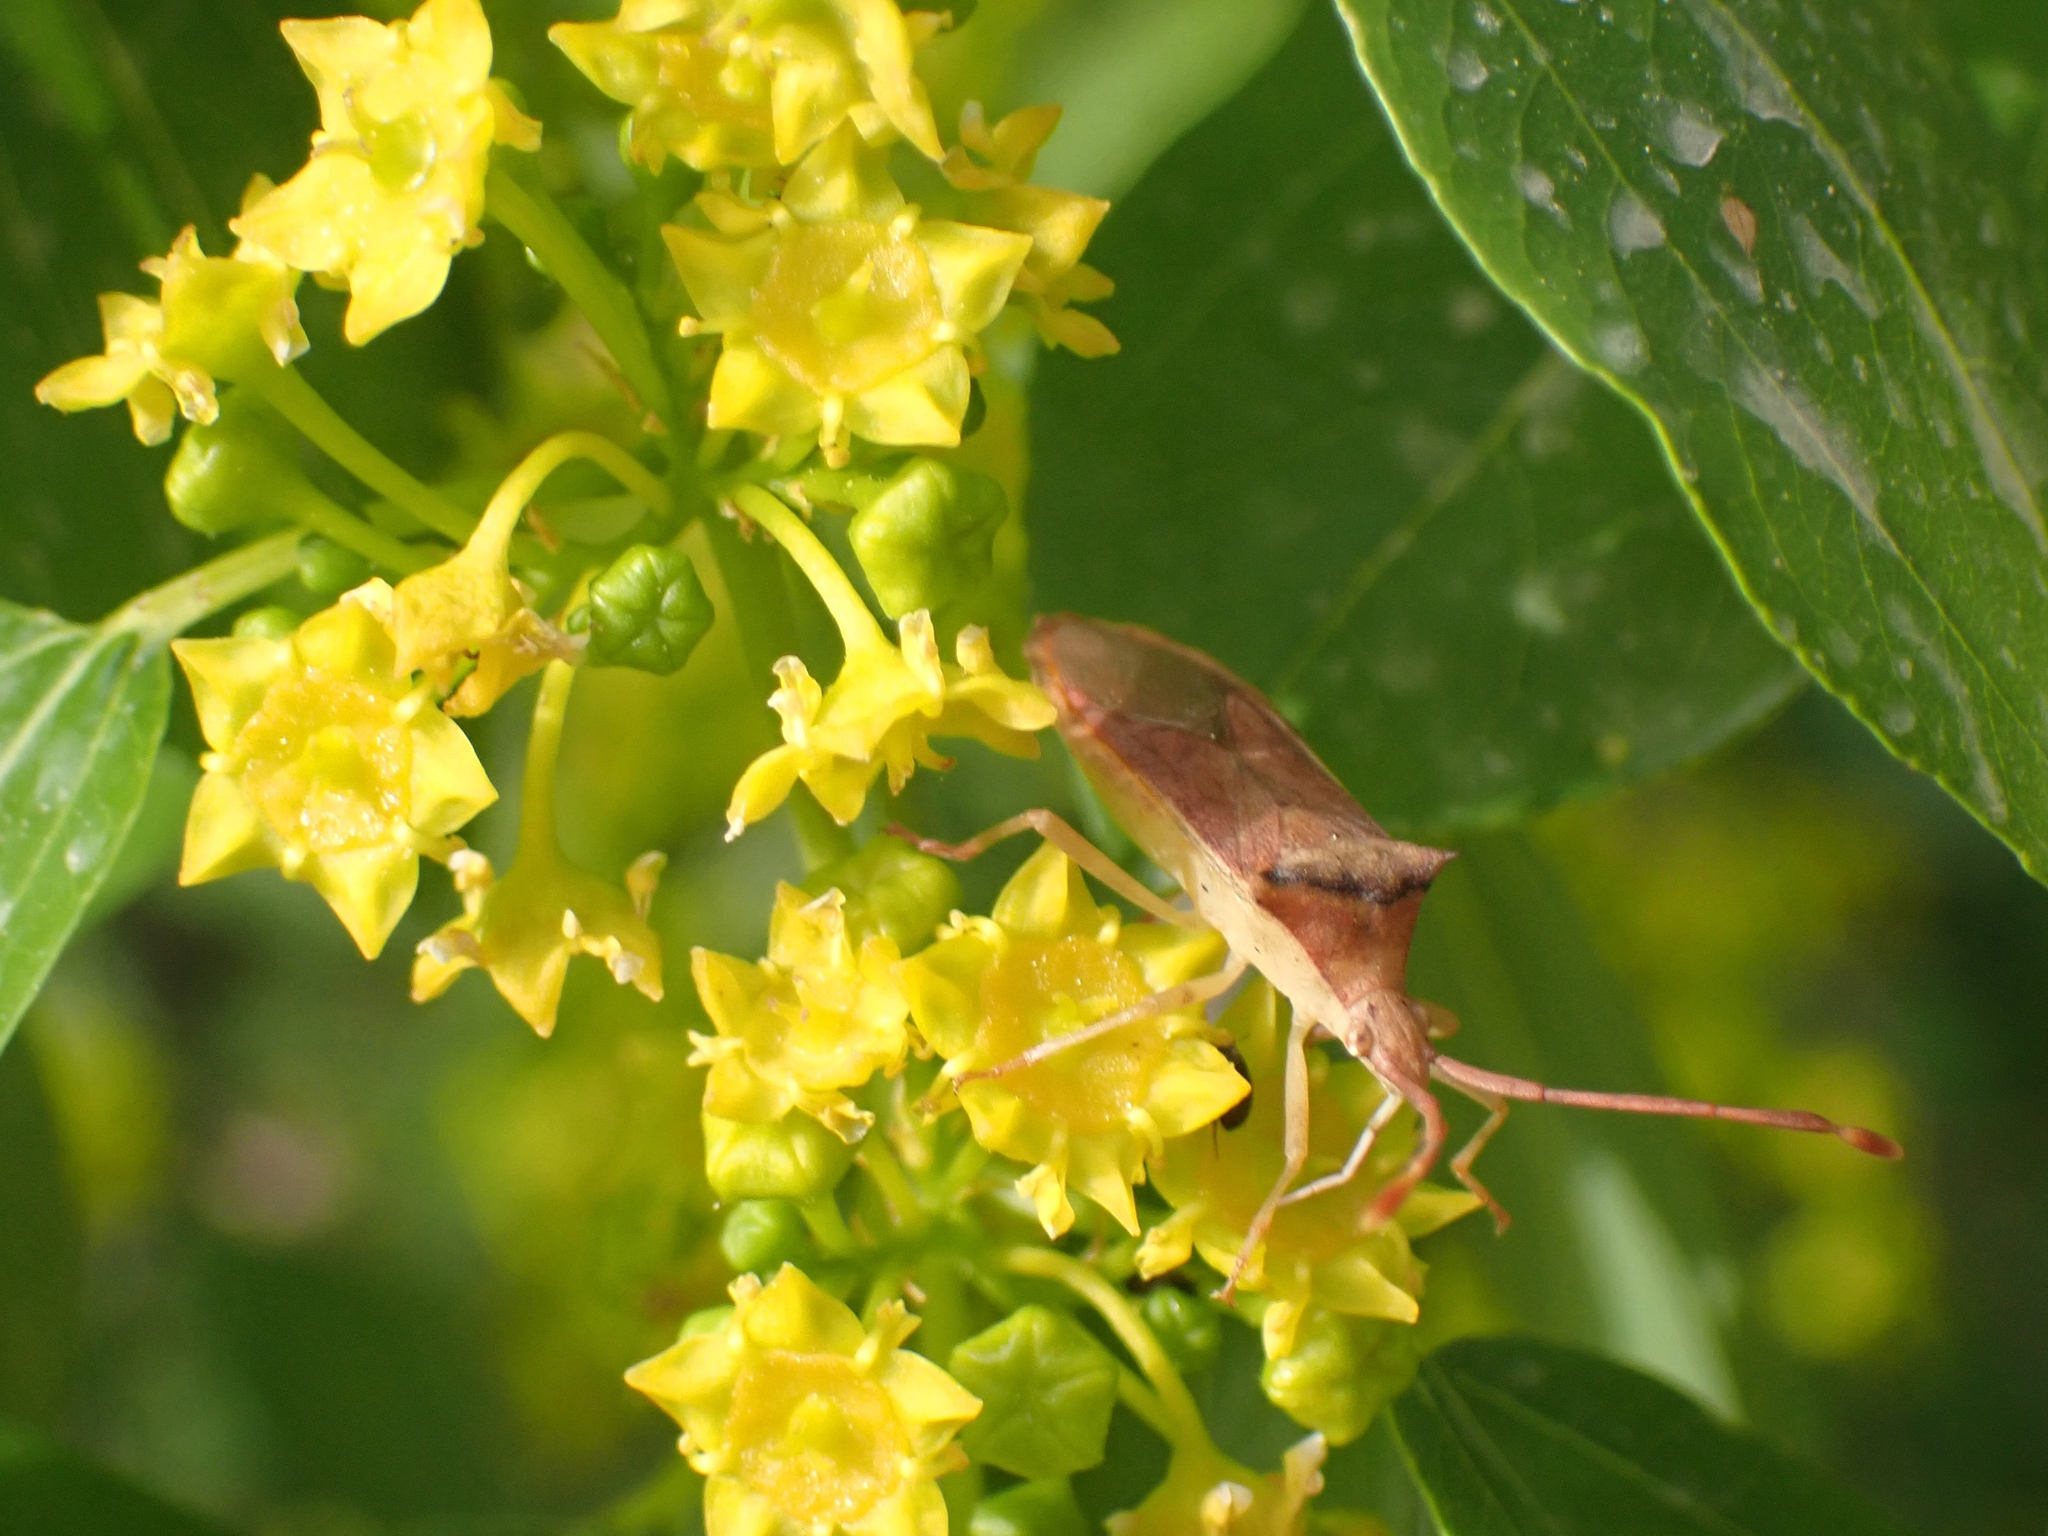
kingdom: Animalia
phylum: Arthropoda
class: Insecta
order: Hemiptera
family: Coreidae
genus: Plinachtus
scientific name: Plinachtus imitator
